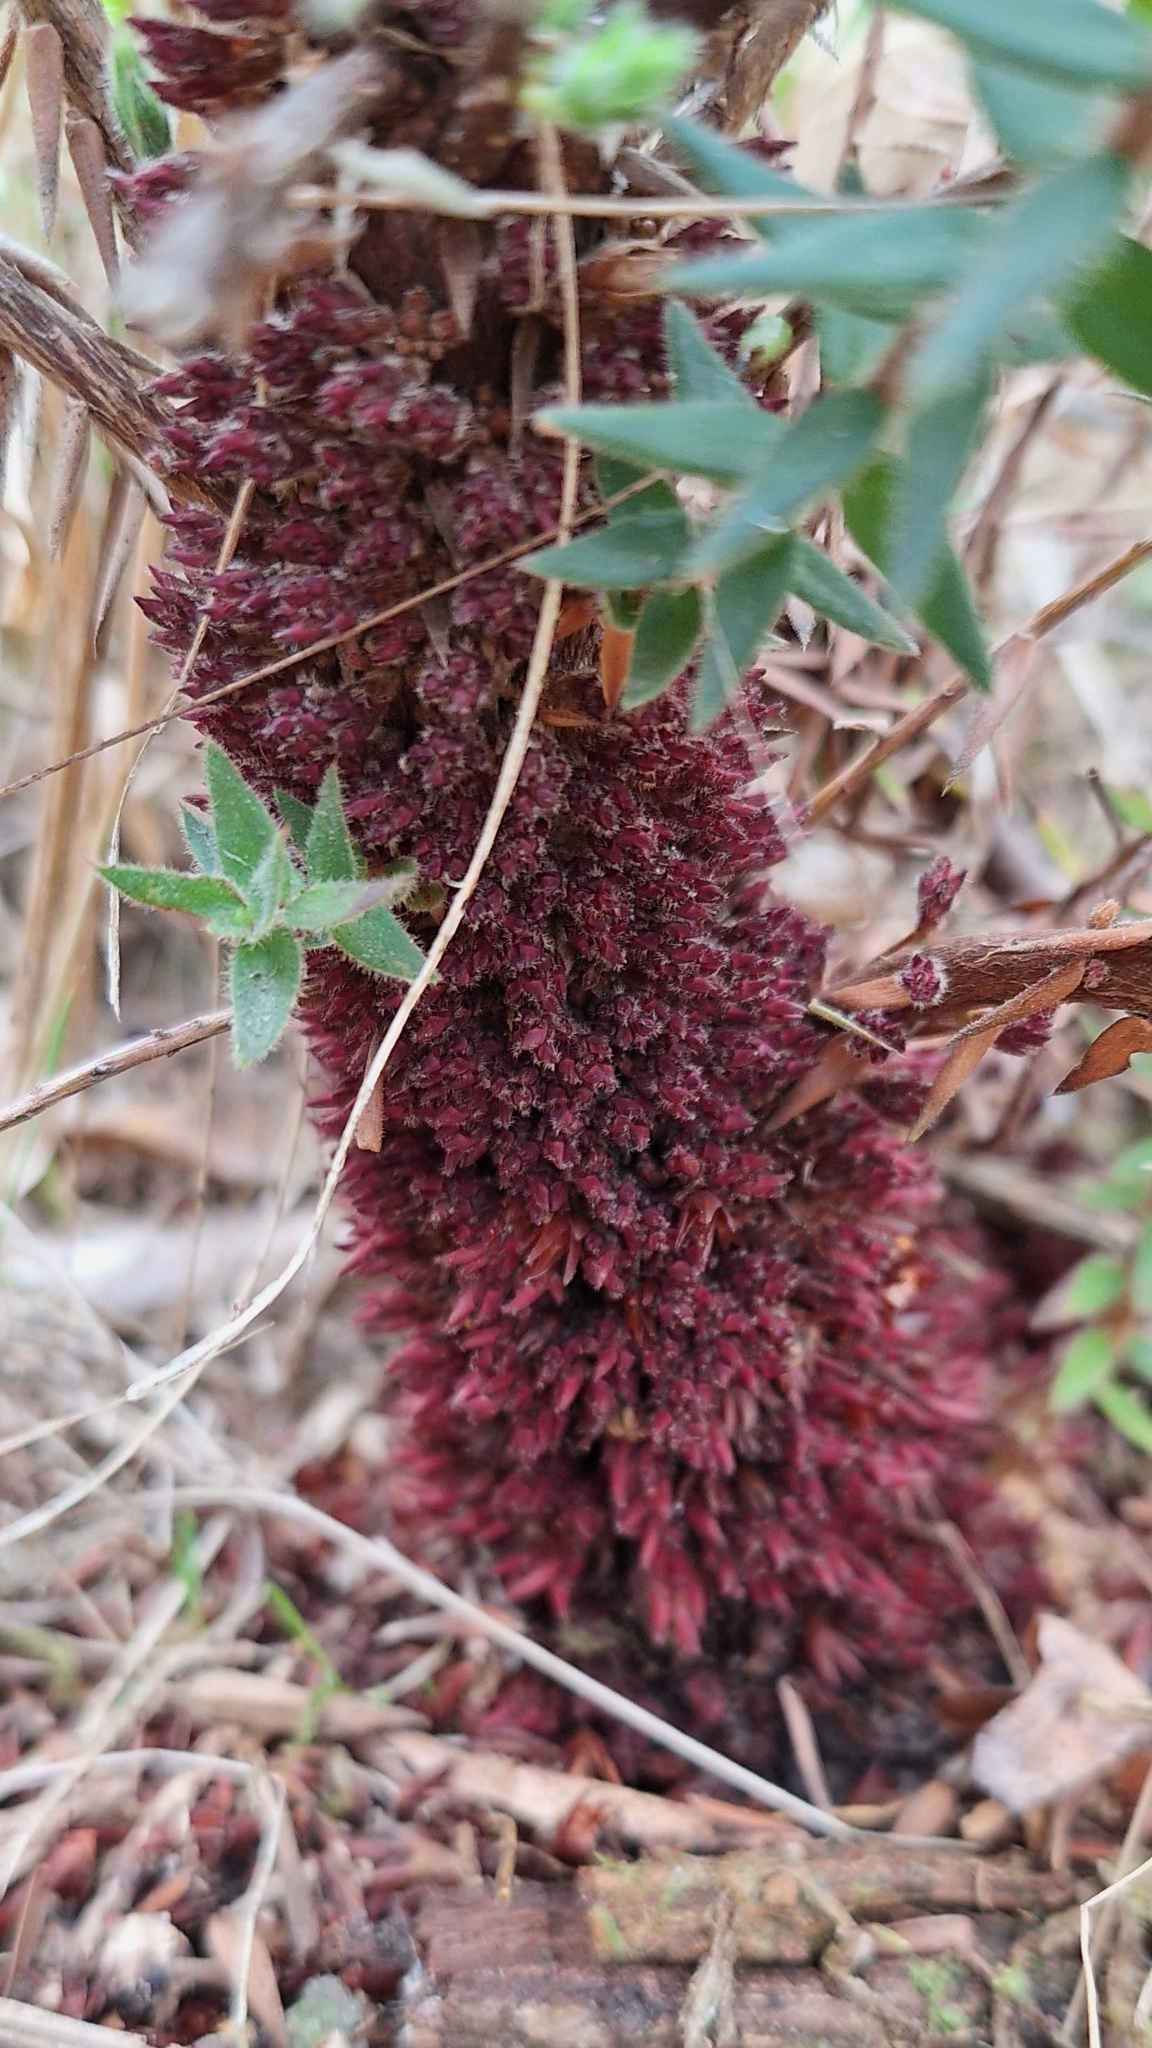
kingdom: Plantae
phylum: Tracheophyta
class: Magnoliopsida
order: Ericales
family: Ericaceae
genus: Acrotriche
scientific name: Acrotriche fasciculiflora
